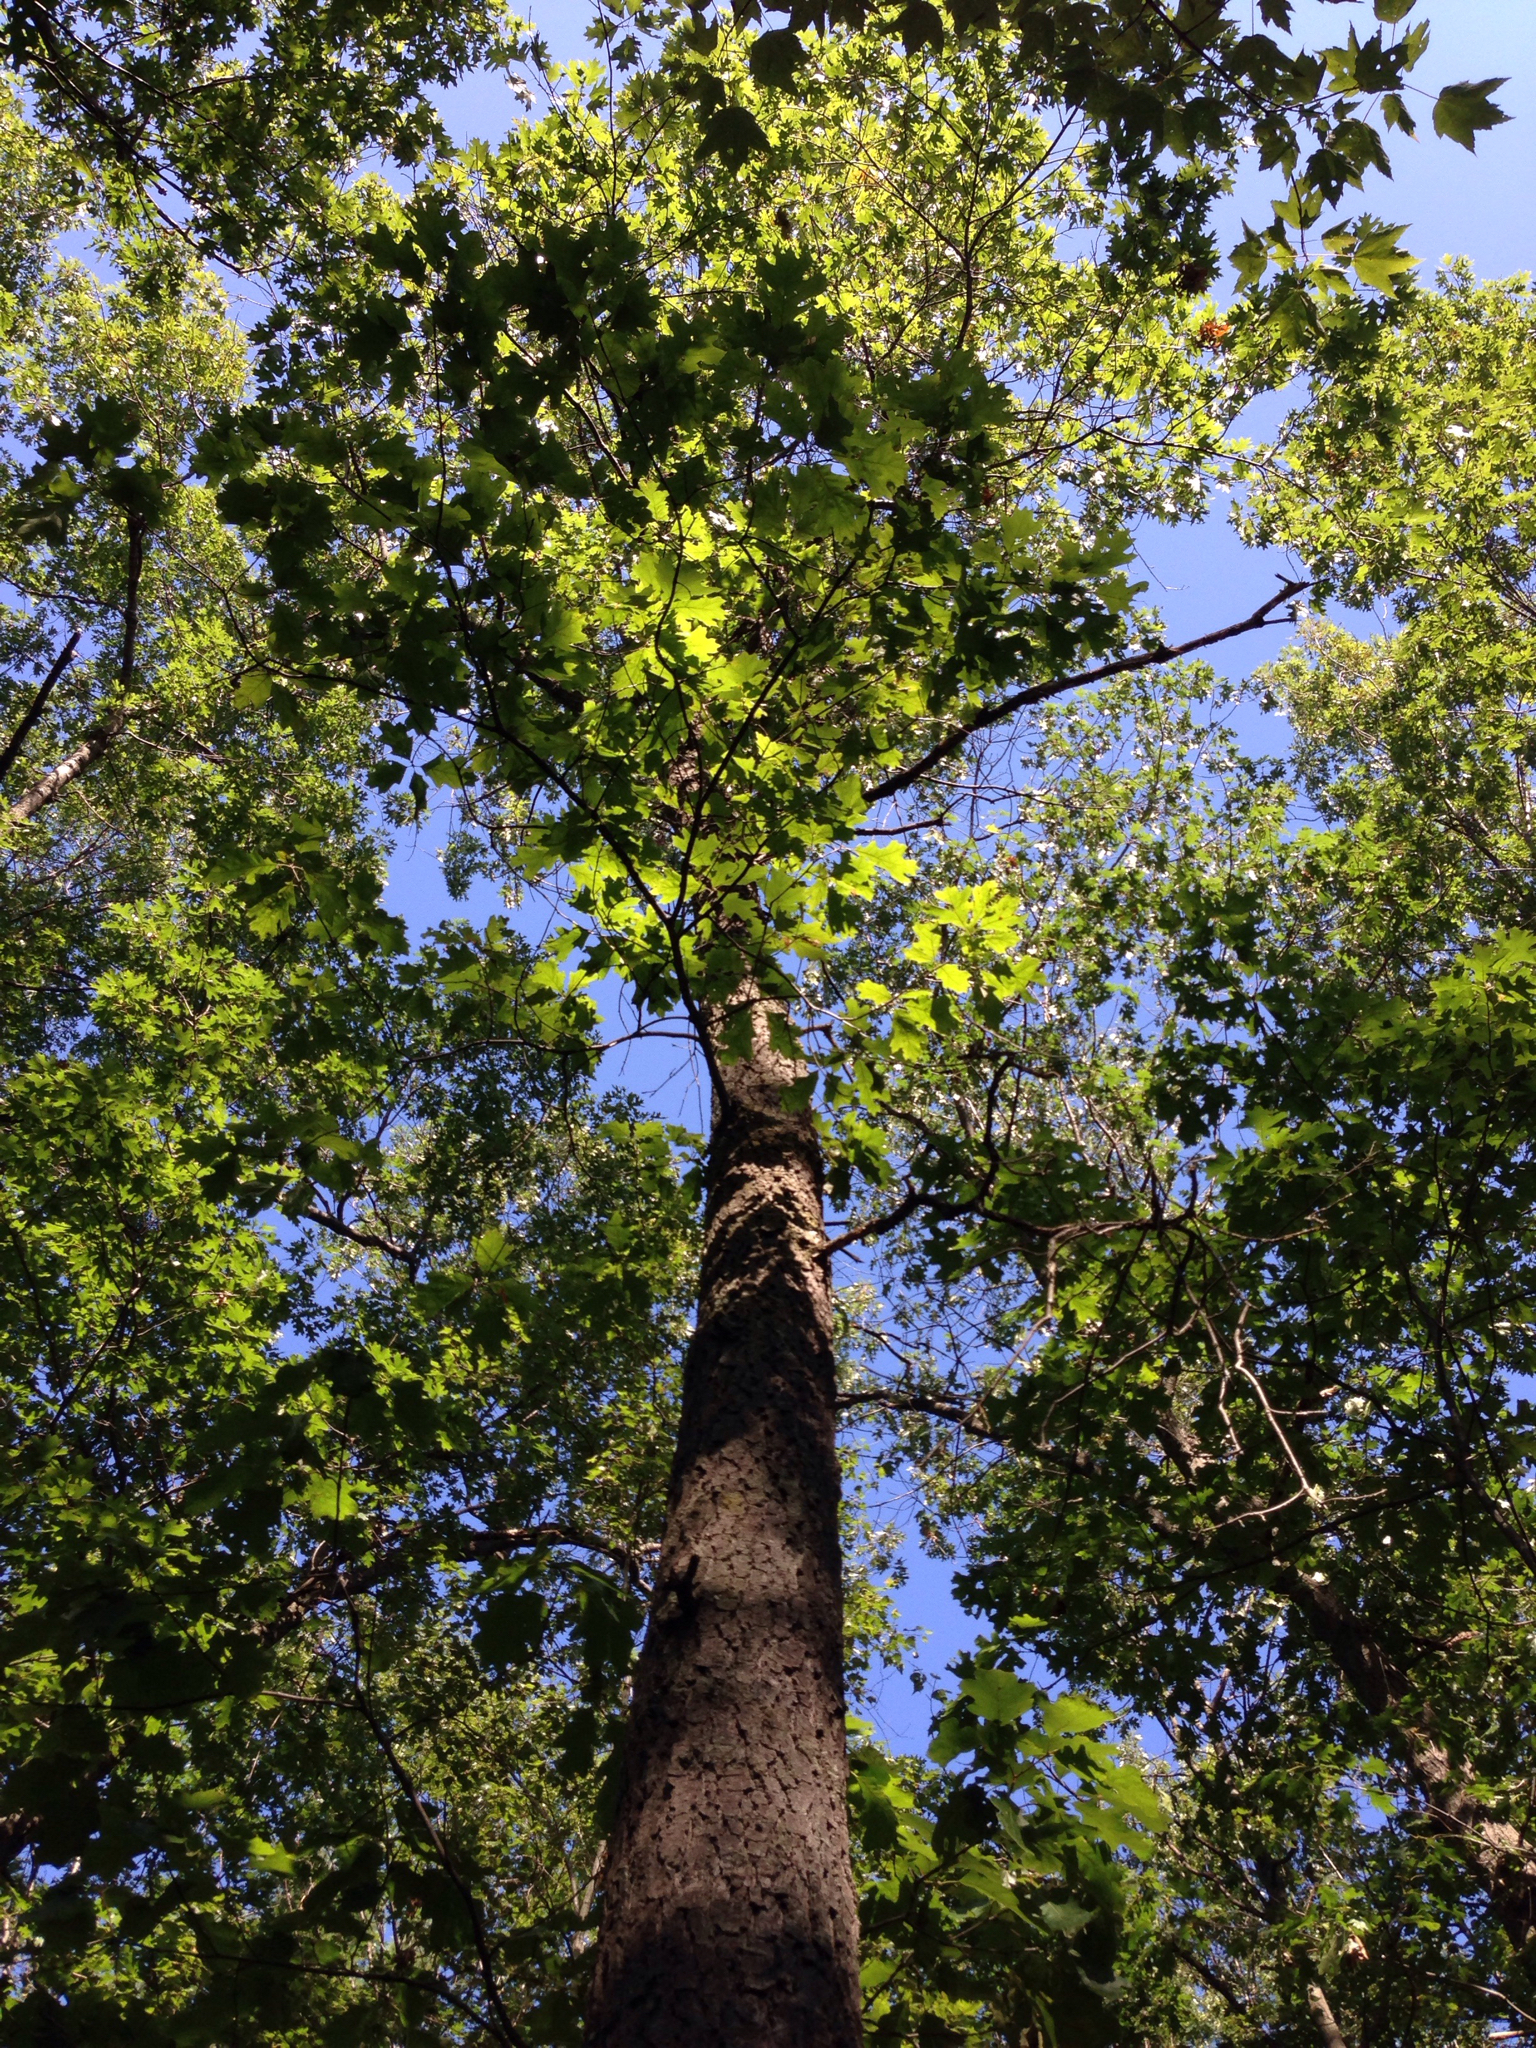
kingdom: Plantae
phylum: Tracheophyta
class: Magnoliopsida
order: Fagales
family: Fagaceae
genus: Quercus
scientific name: Quercus velutina
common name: Black oak
